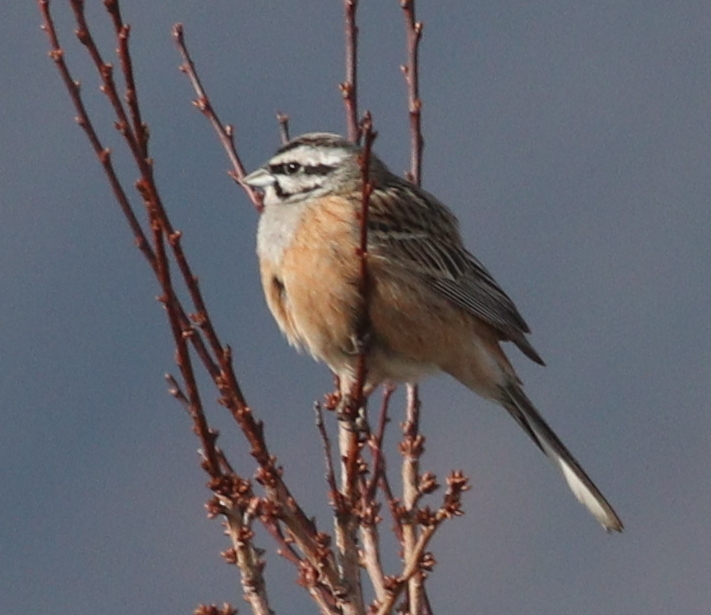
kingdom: Animalia
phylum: Chordata
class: Aves
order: Passeriformes
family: Emberizidae
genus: Emberiza
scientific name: Emberiza cia
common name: Rock bunting
